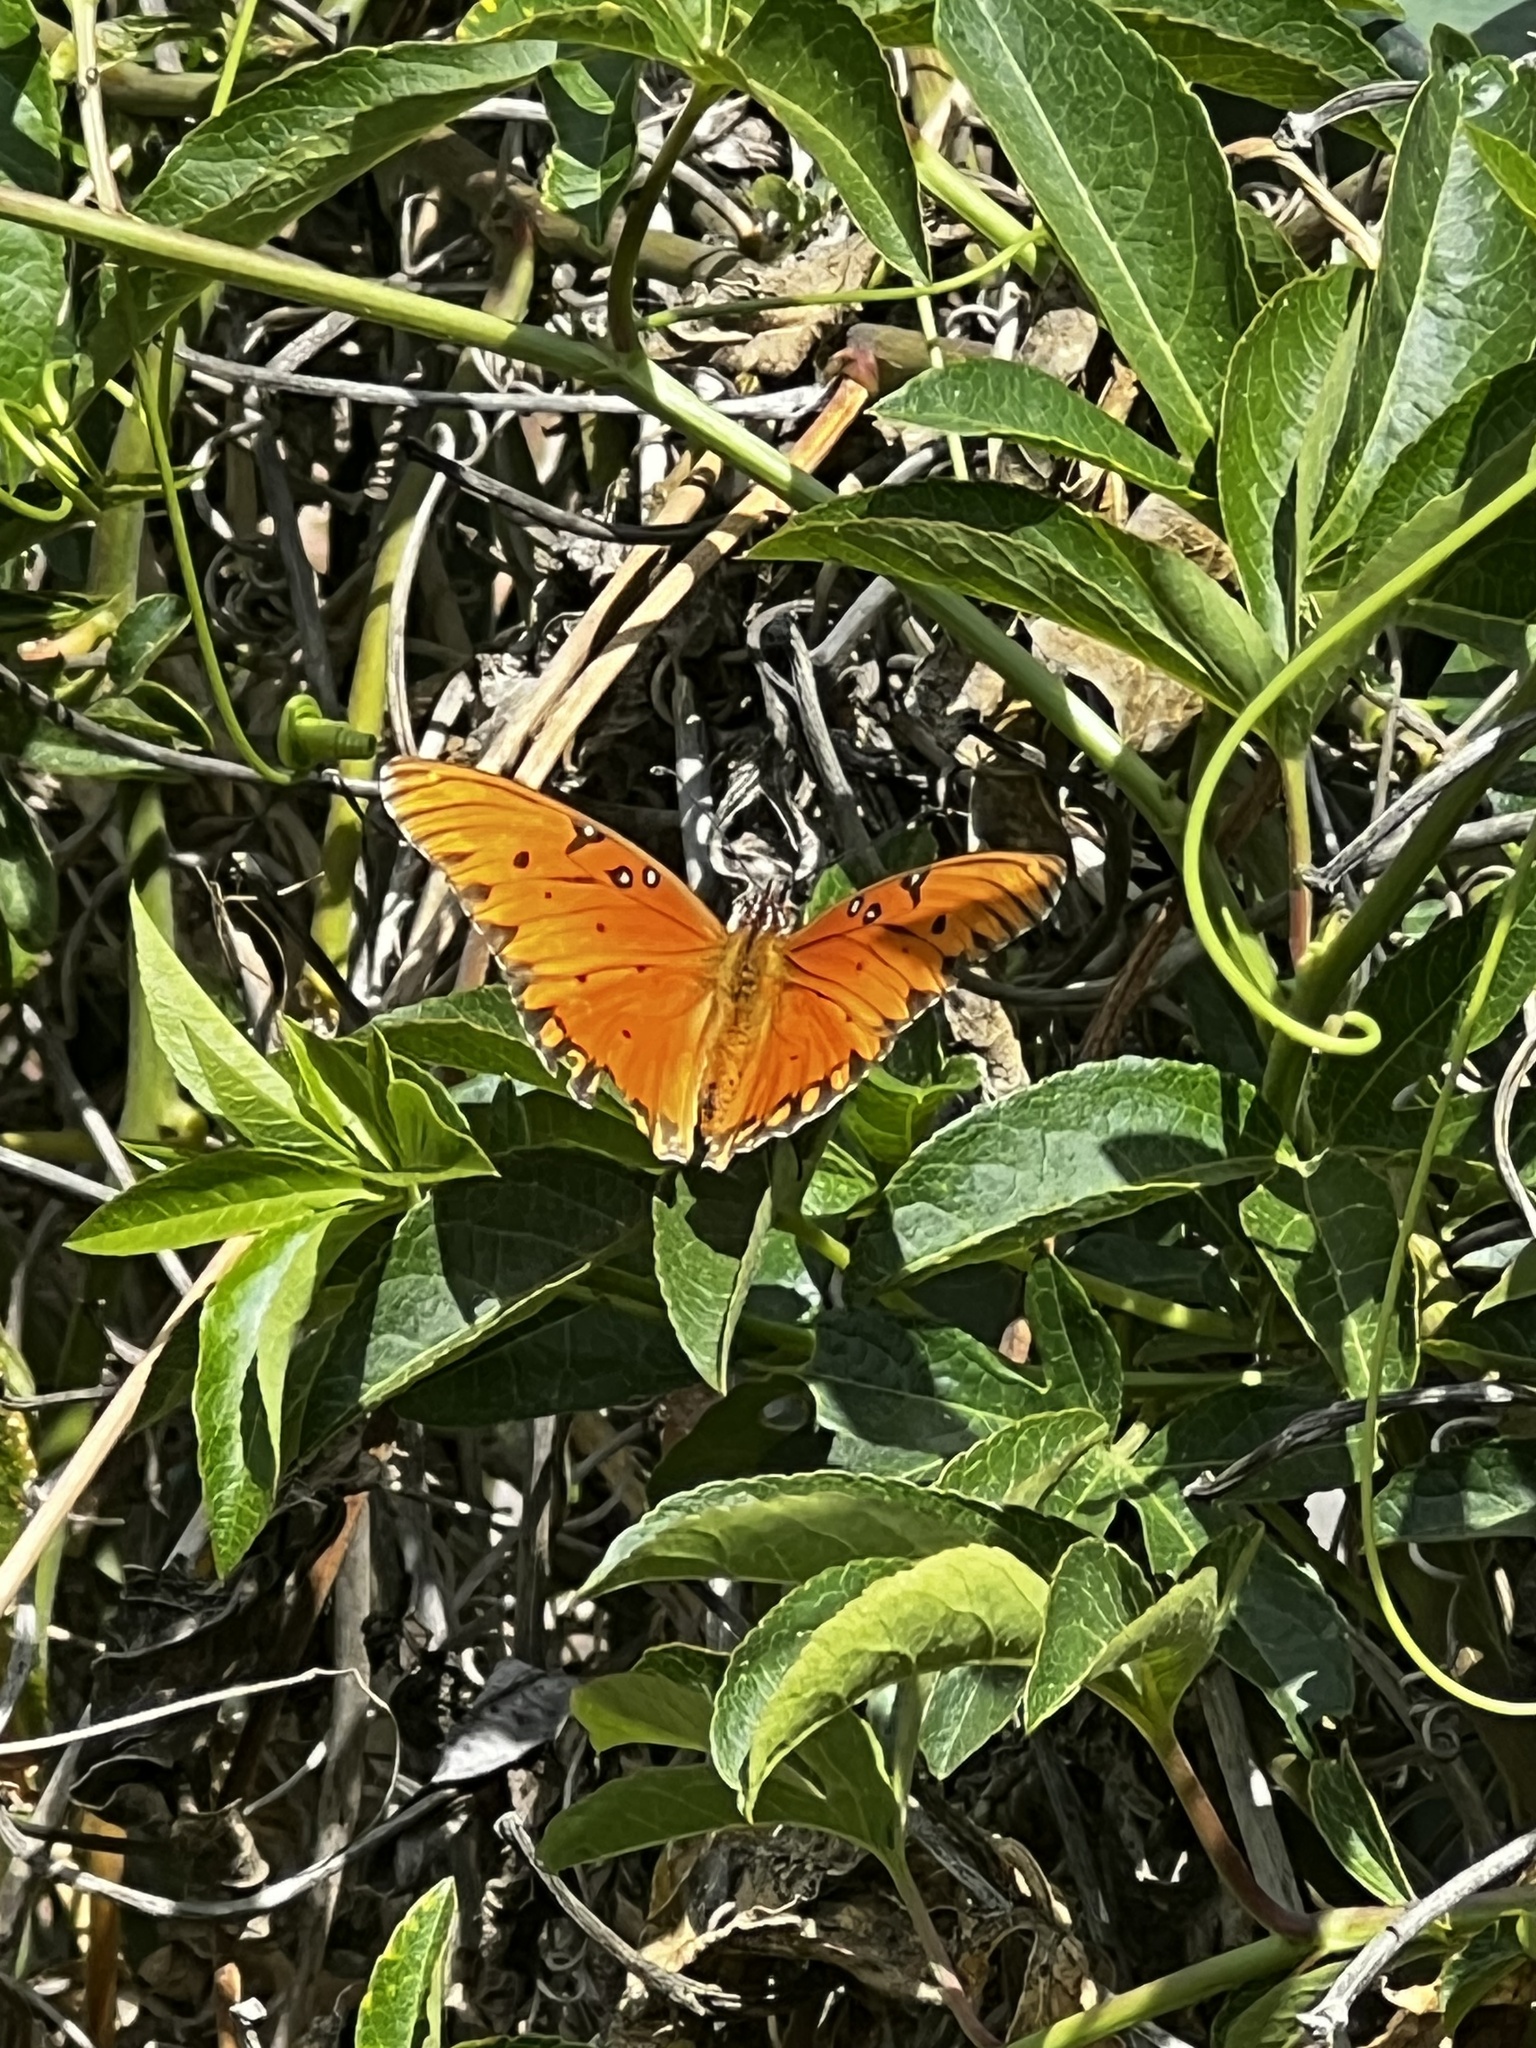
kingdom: Animalia
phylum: Arthropoda
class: Insecta
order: Lepidoptera
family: Nymphalidae
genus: Dione
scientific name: Dione vanillae
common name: Gulf fritillary
